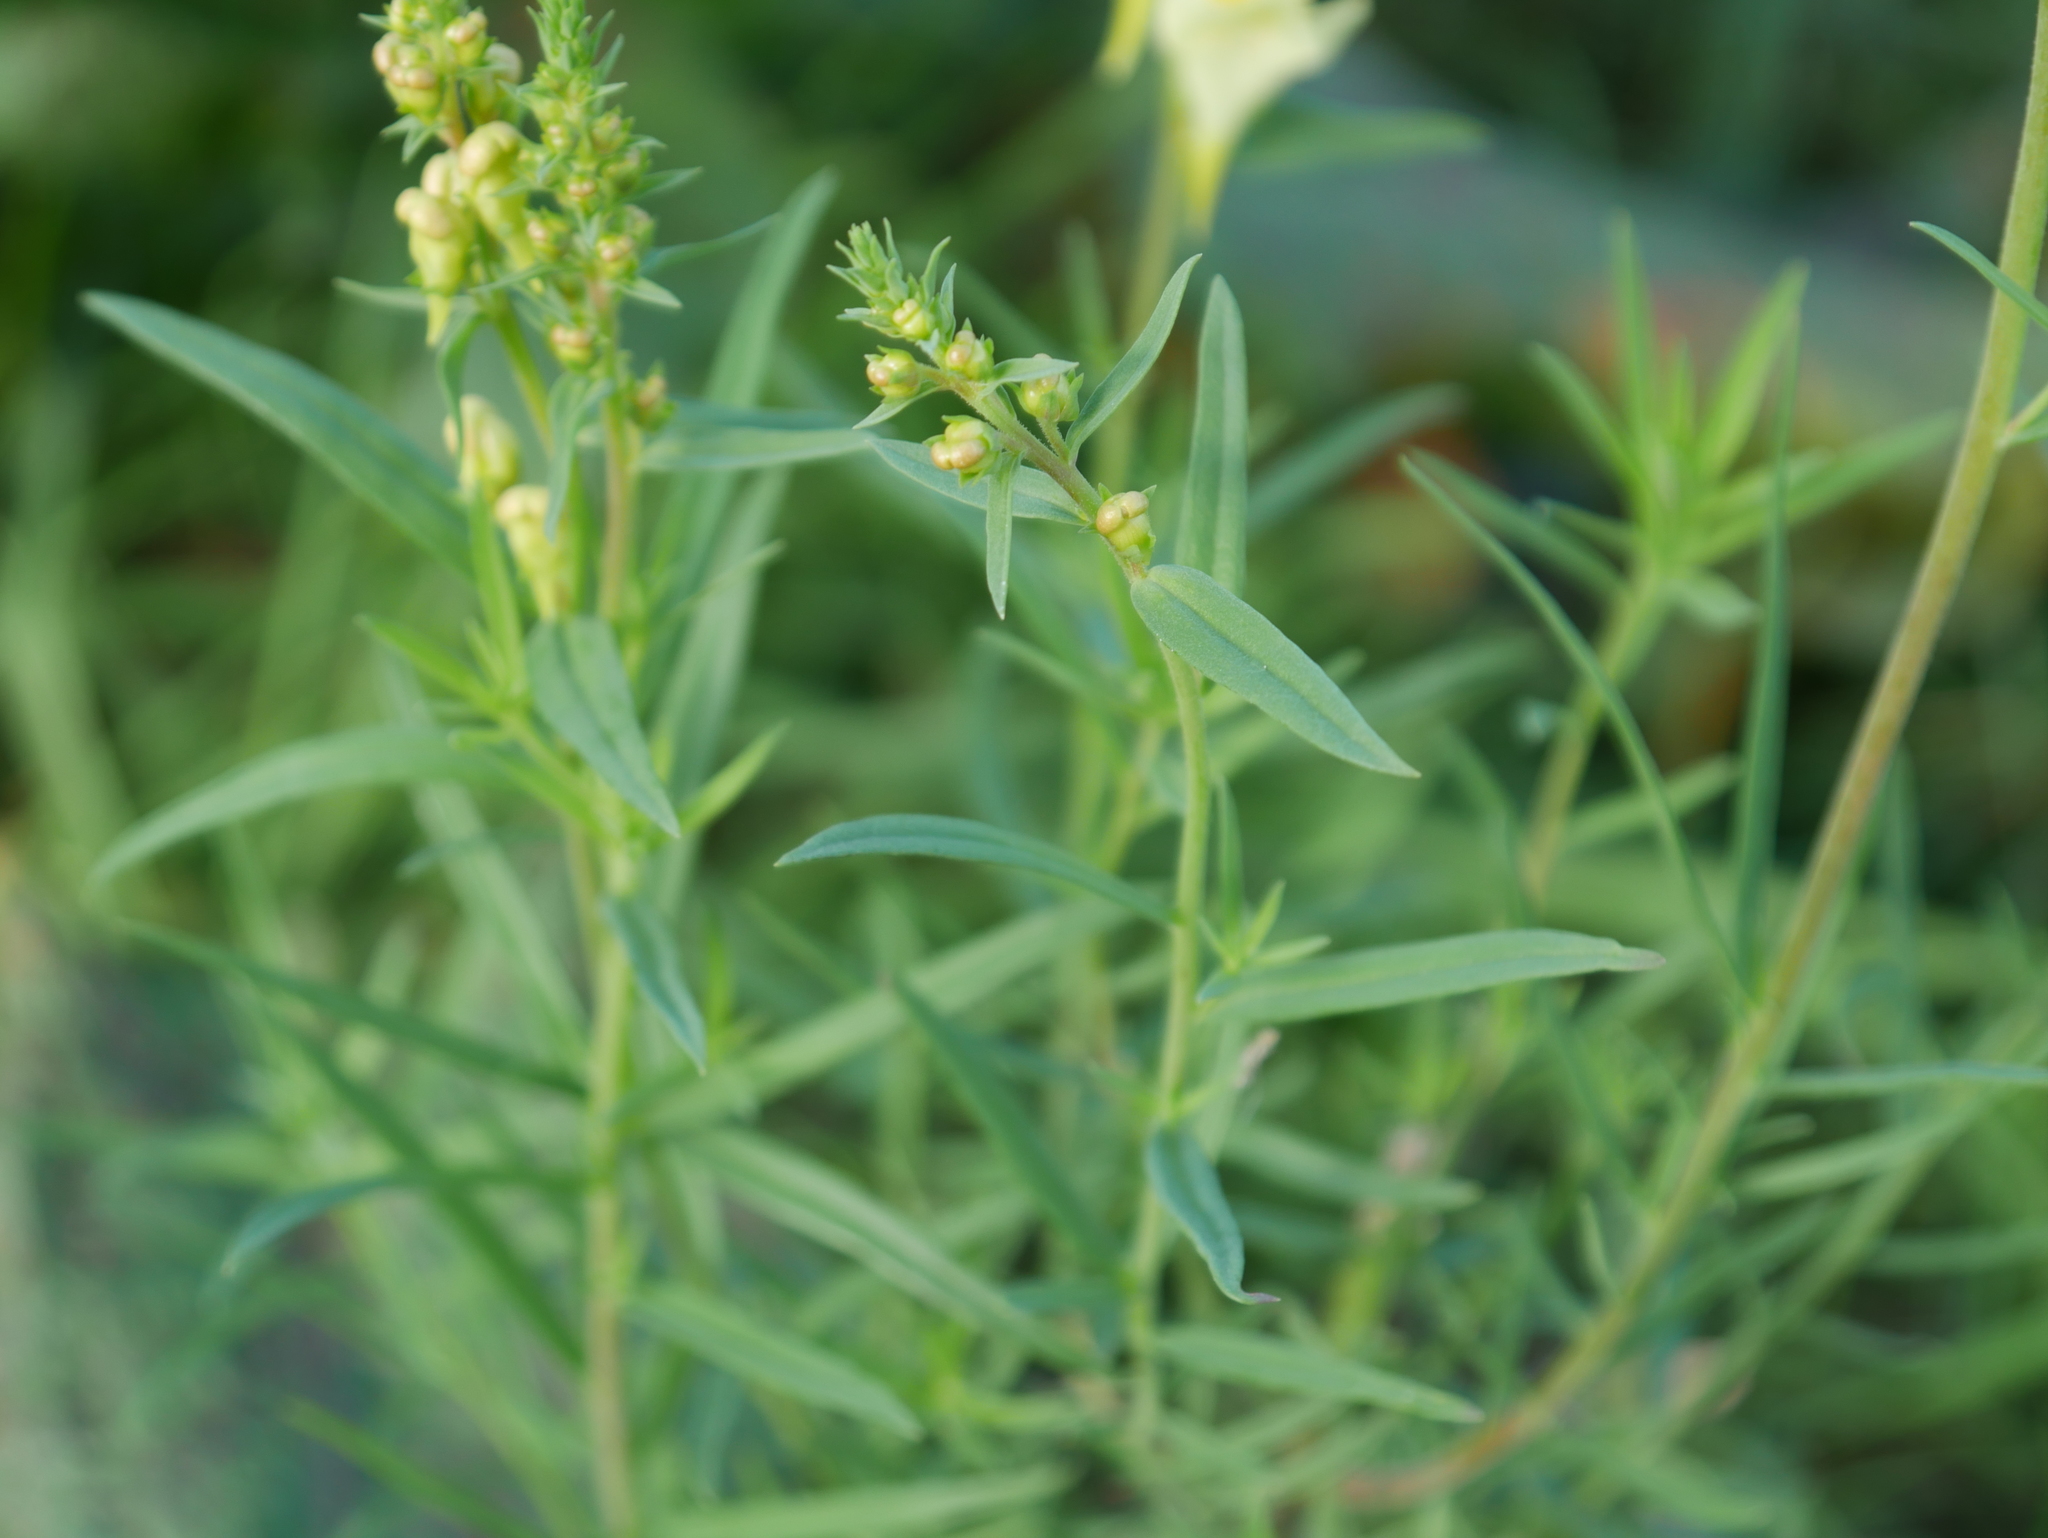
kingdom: Plantae
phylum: Tracheophyta
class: Magnoliopsida
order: Lamiales
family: Plantaginaceae
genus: Linaria
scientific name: Linaria vulgaris
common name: Butter and eggs
